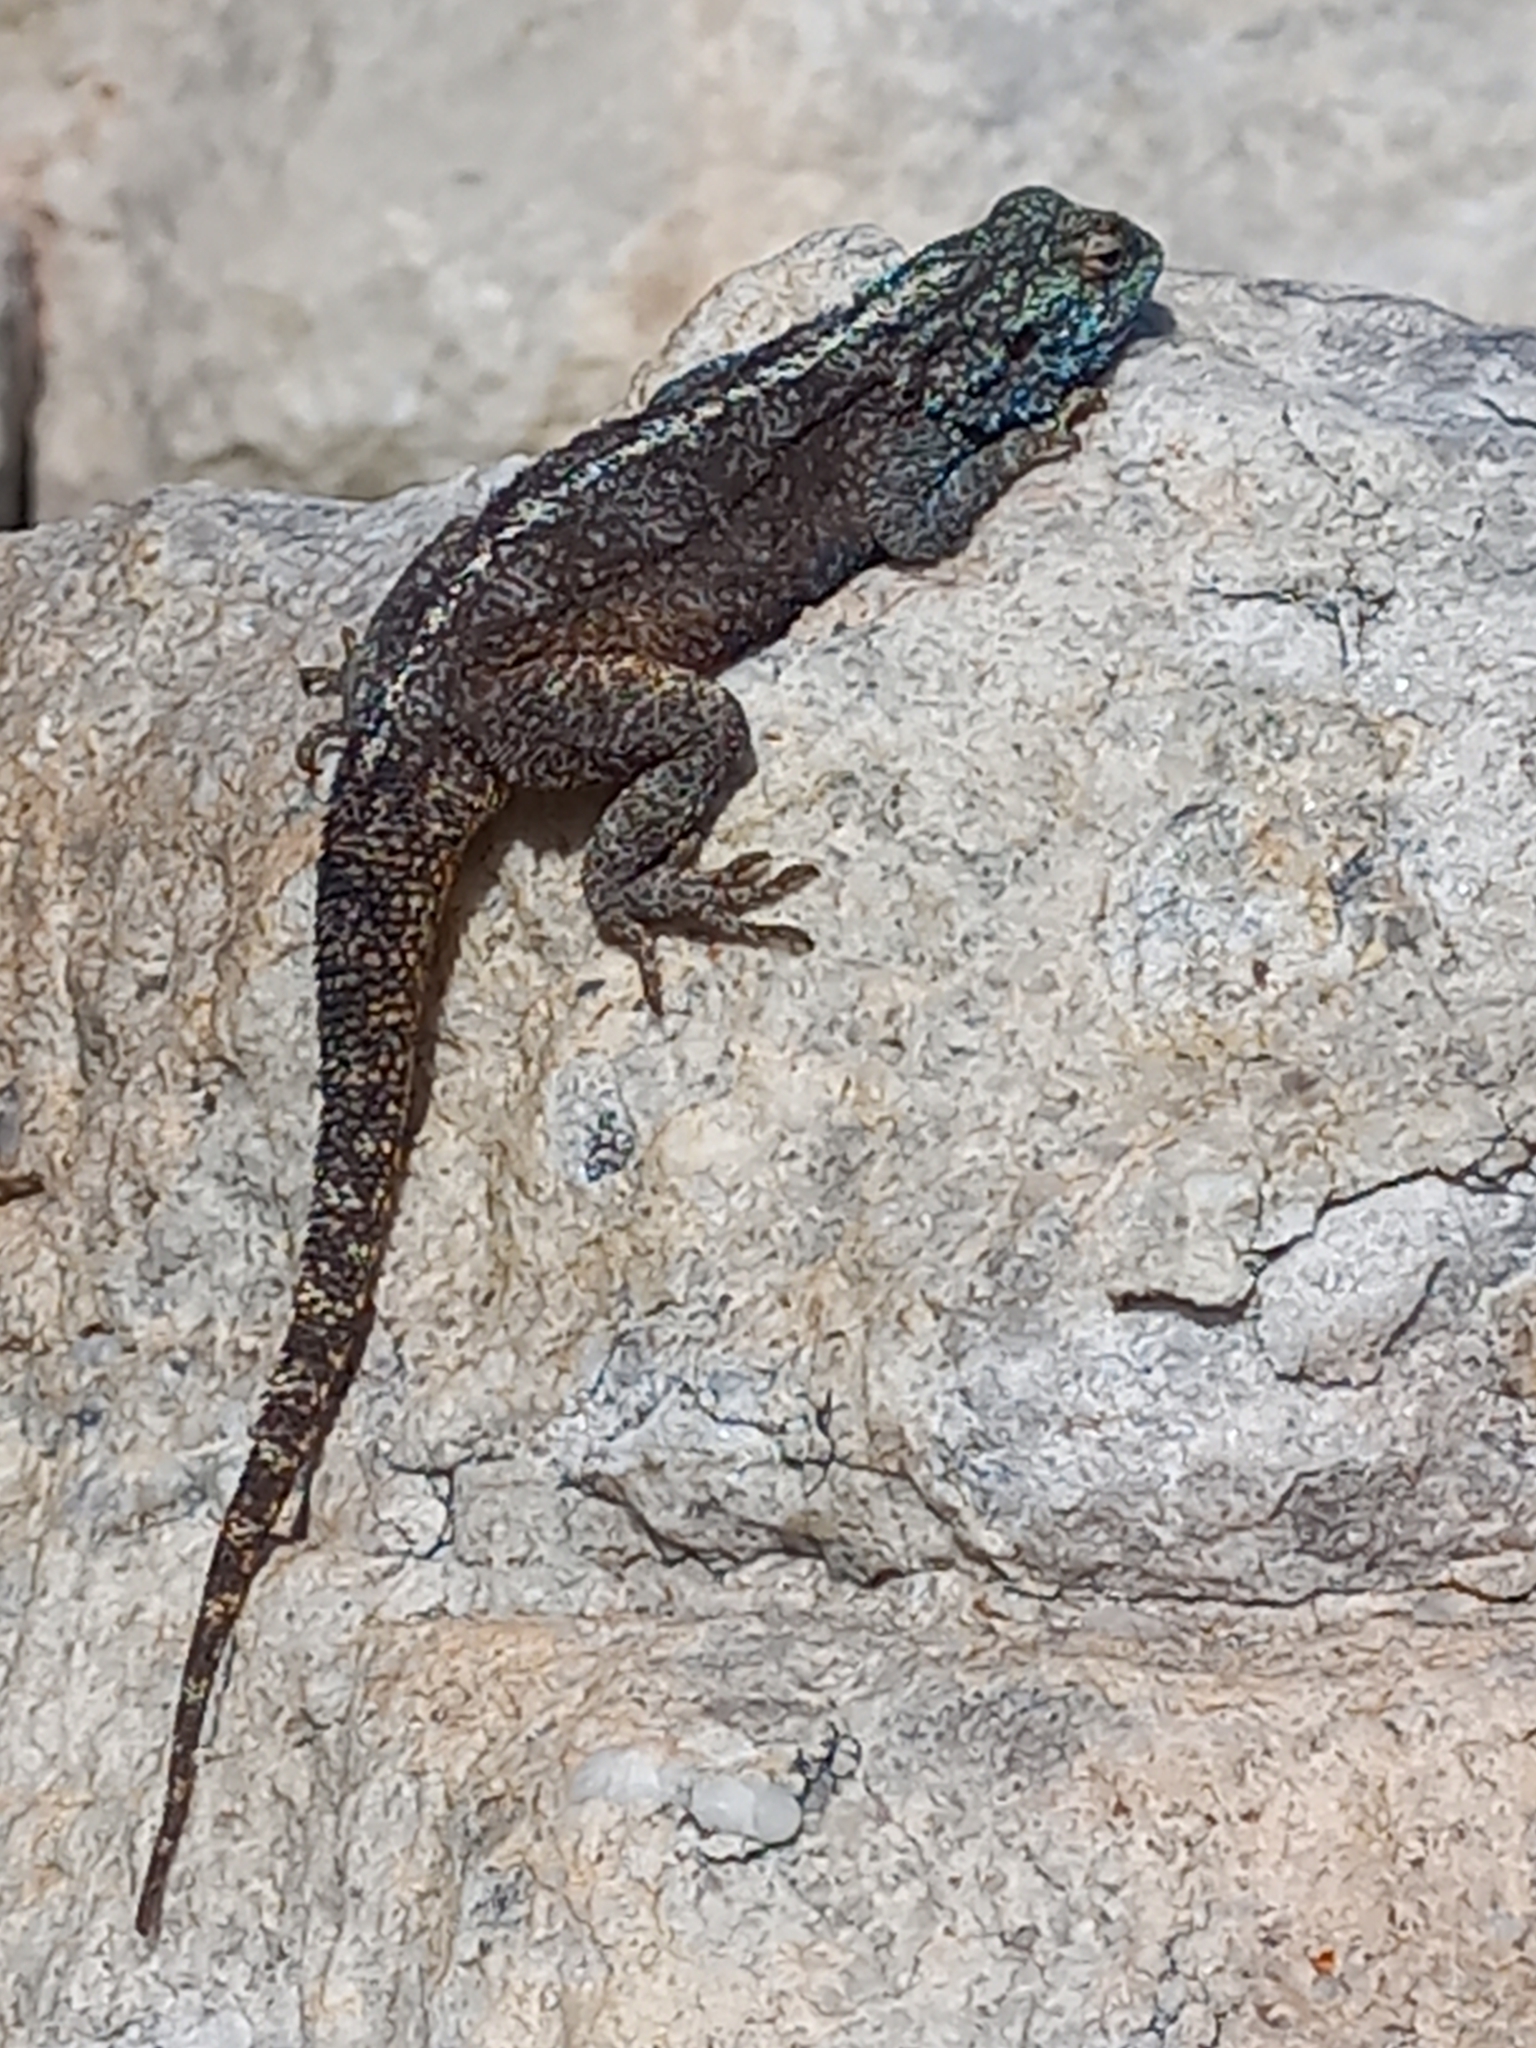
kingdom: Animalia
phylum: Chordata
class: Squamata
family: Agamidae
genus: Agama
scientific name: Agama atra
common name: Southern african rock agama
